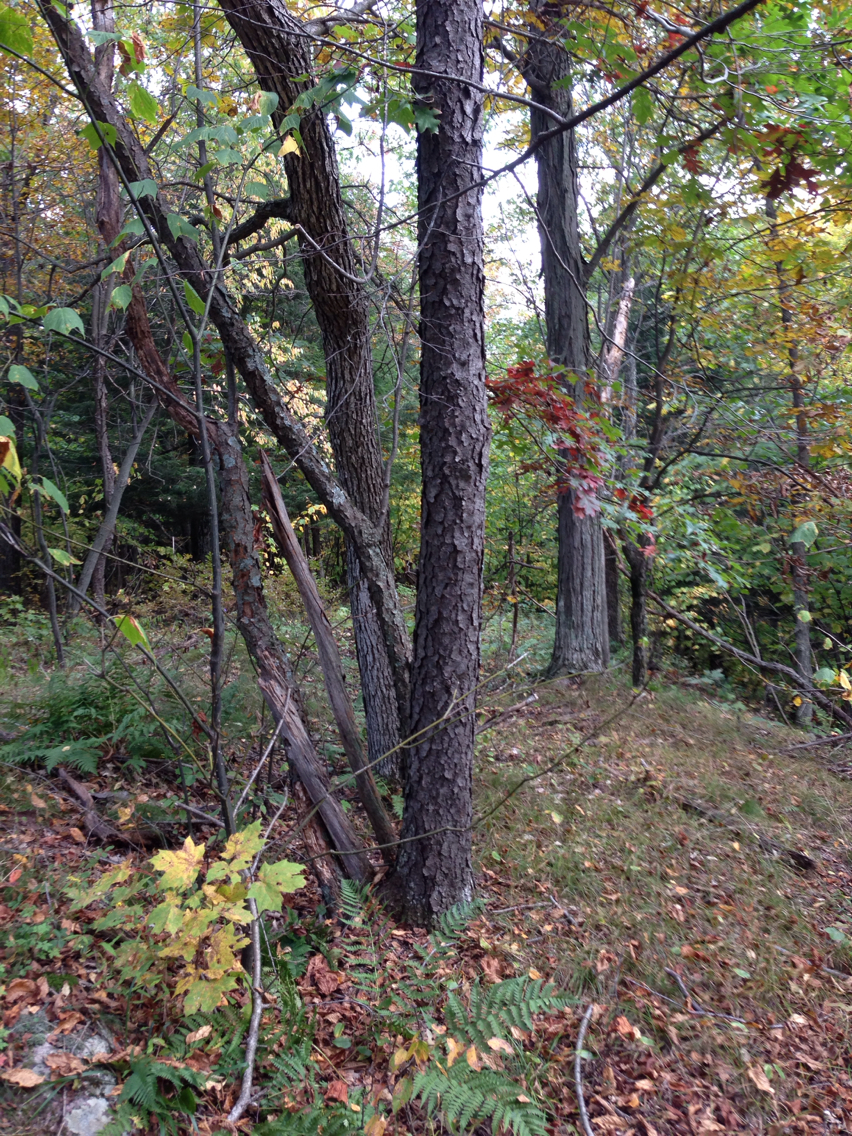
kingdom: Plantae
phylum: Tracheophyta
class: Magnoliopsida
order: Rosales
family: Rosaceae
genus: Prunus
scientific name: Prunus serotina
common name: Black cherry
